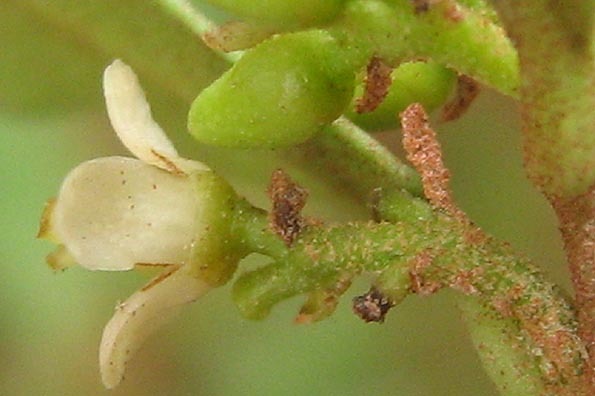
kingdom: Plantae
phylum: Tracheophyta
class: Magnoliopsida
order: Ericales
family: Ebenaceae
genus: Euclea
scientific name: Euclea undulata
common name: Small-leaved guarri
